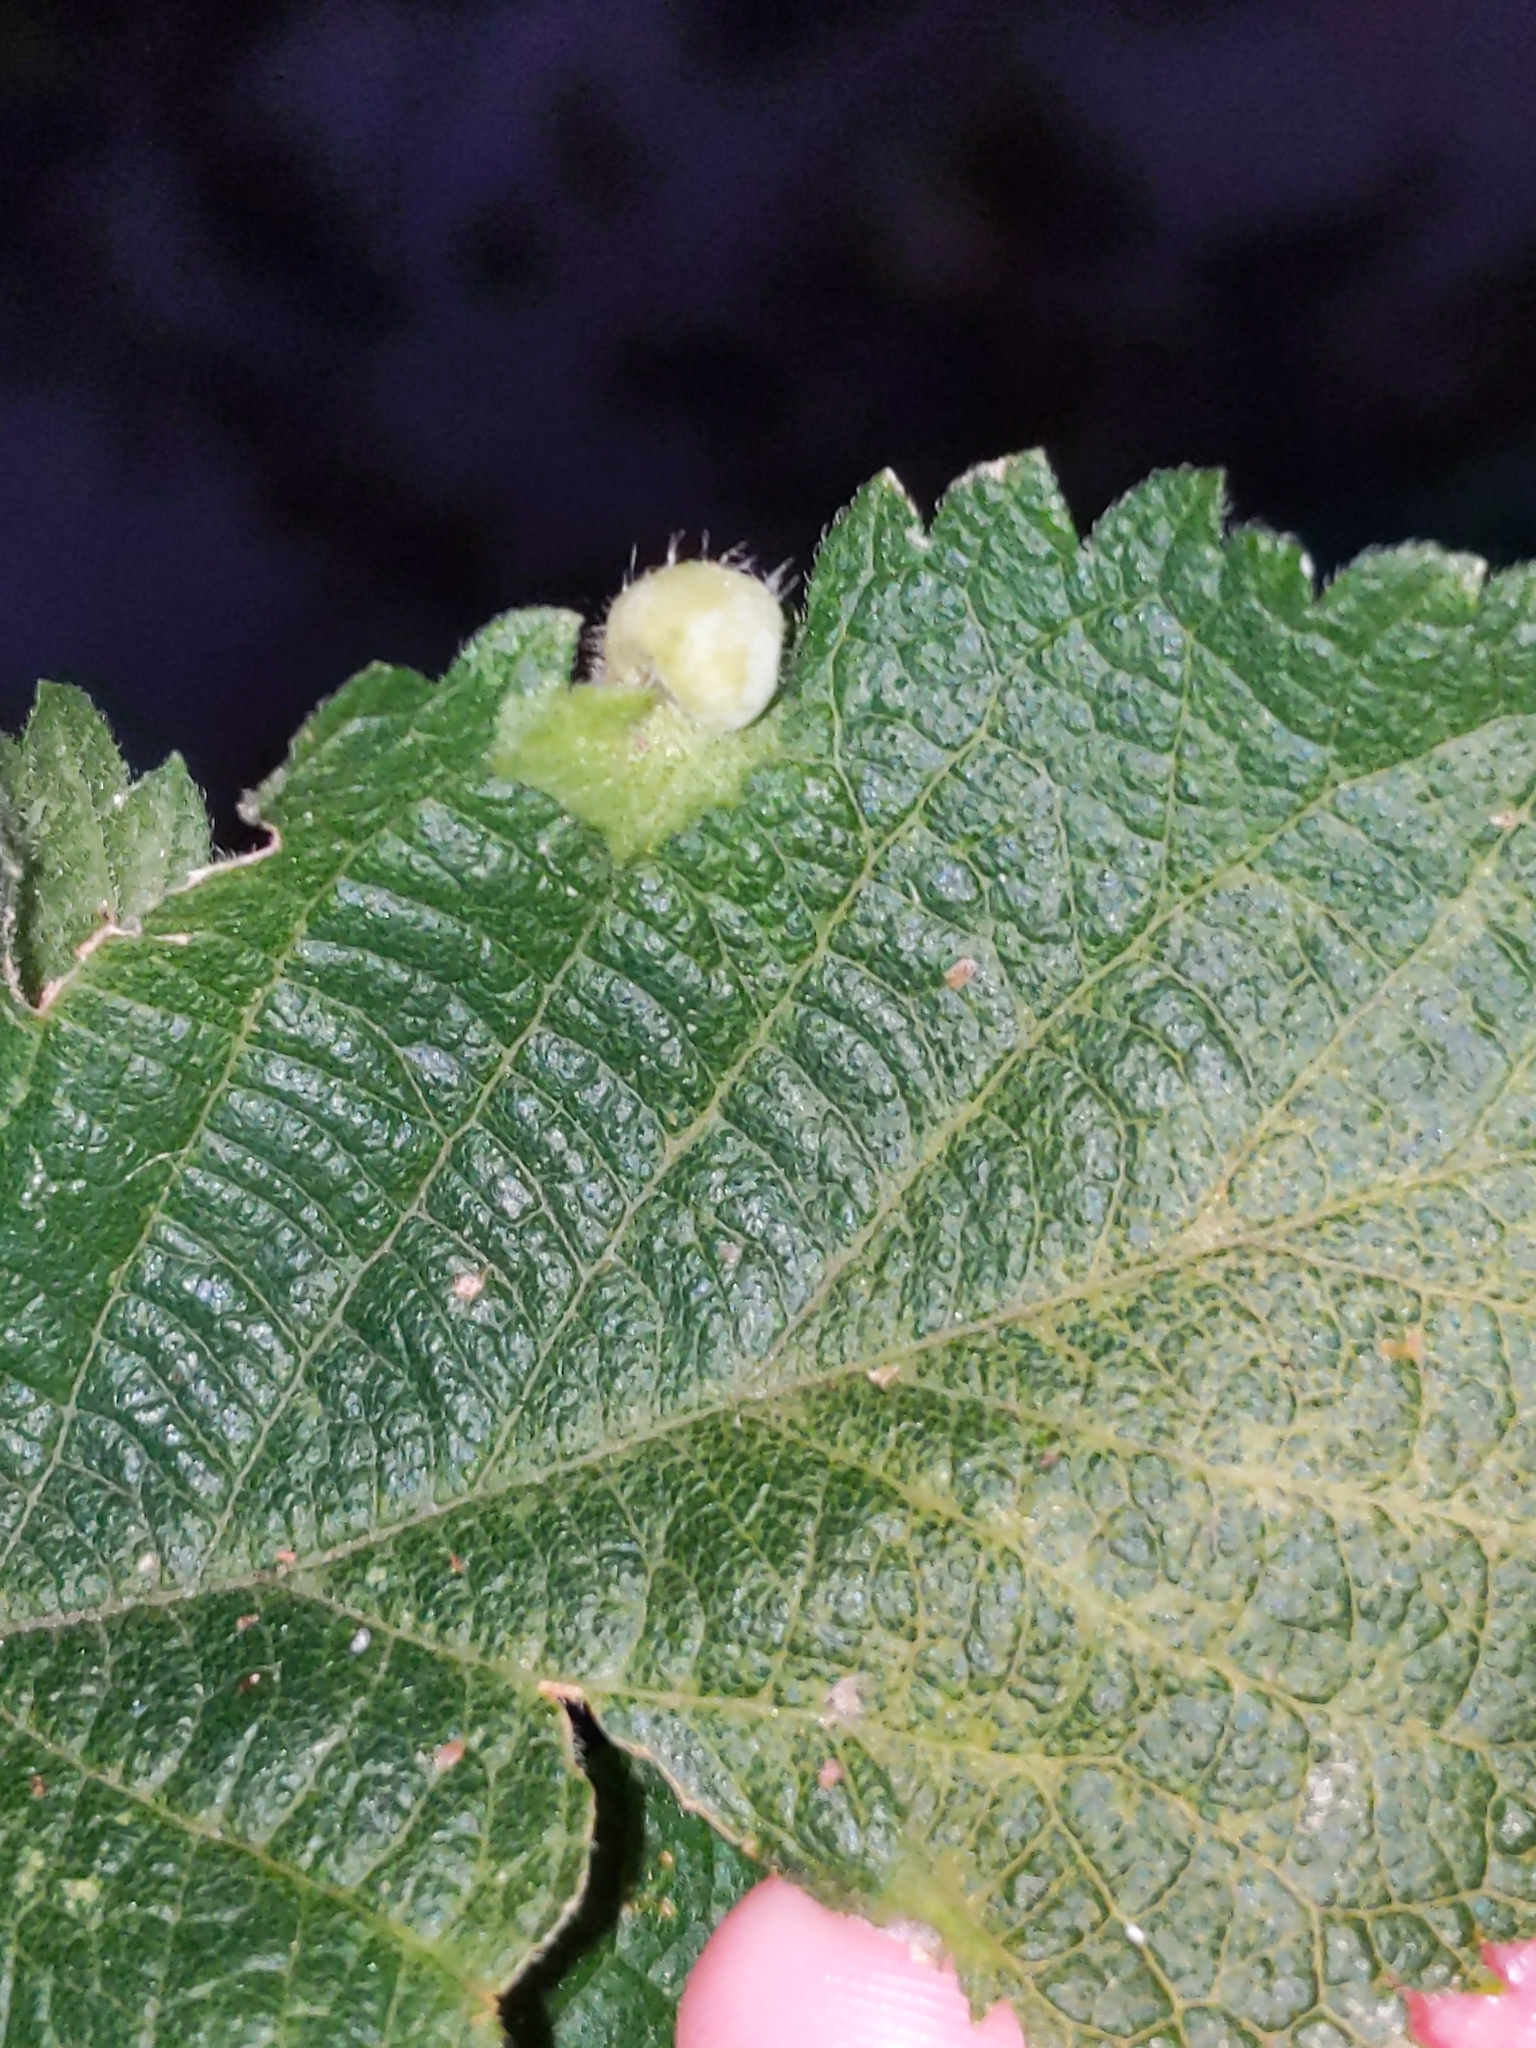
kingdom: Animalia
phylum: Arthropoda
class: Insecta
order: Hemiptera
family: Aphalaridae
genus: Pachypsylla
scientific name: Pachypsylla celtidismamma
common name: Hackberry nipplegall psyllid
